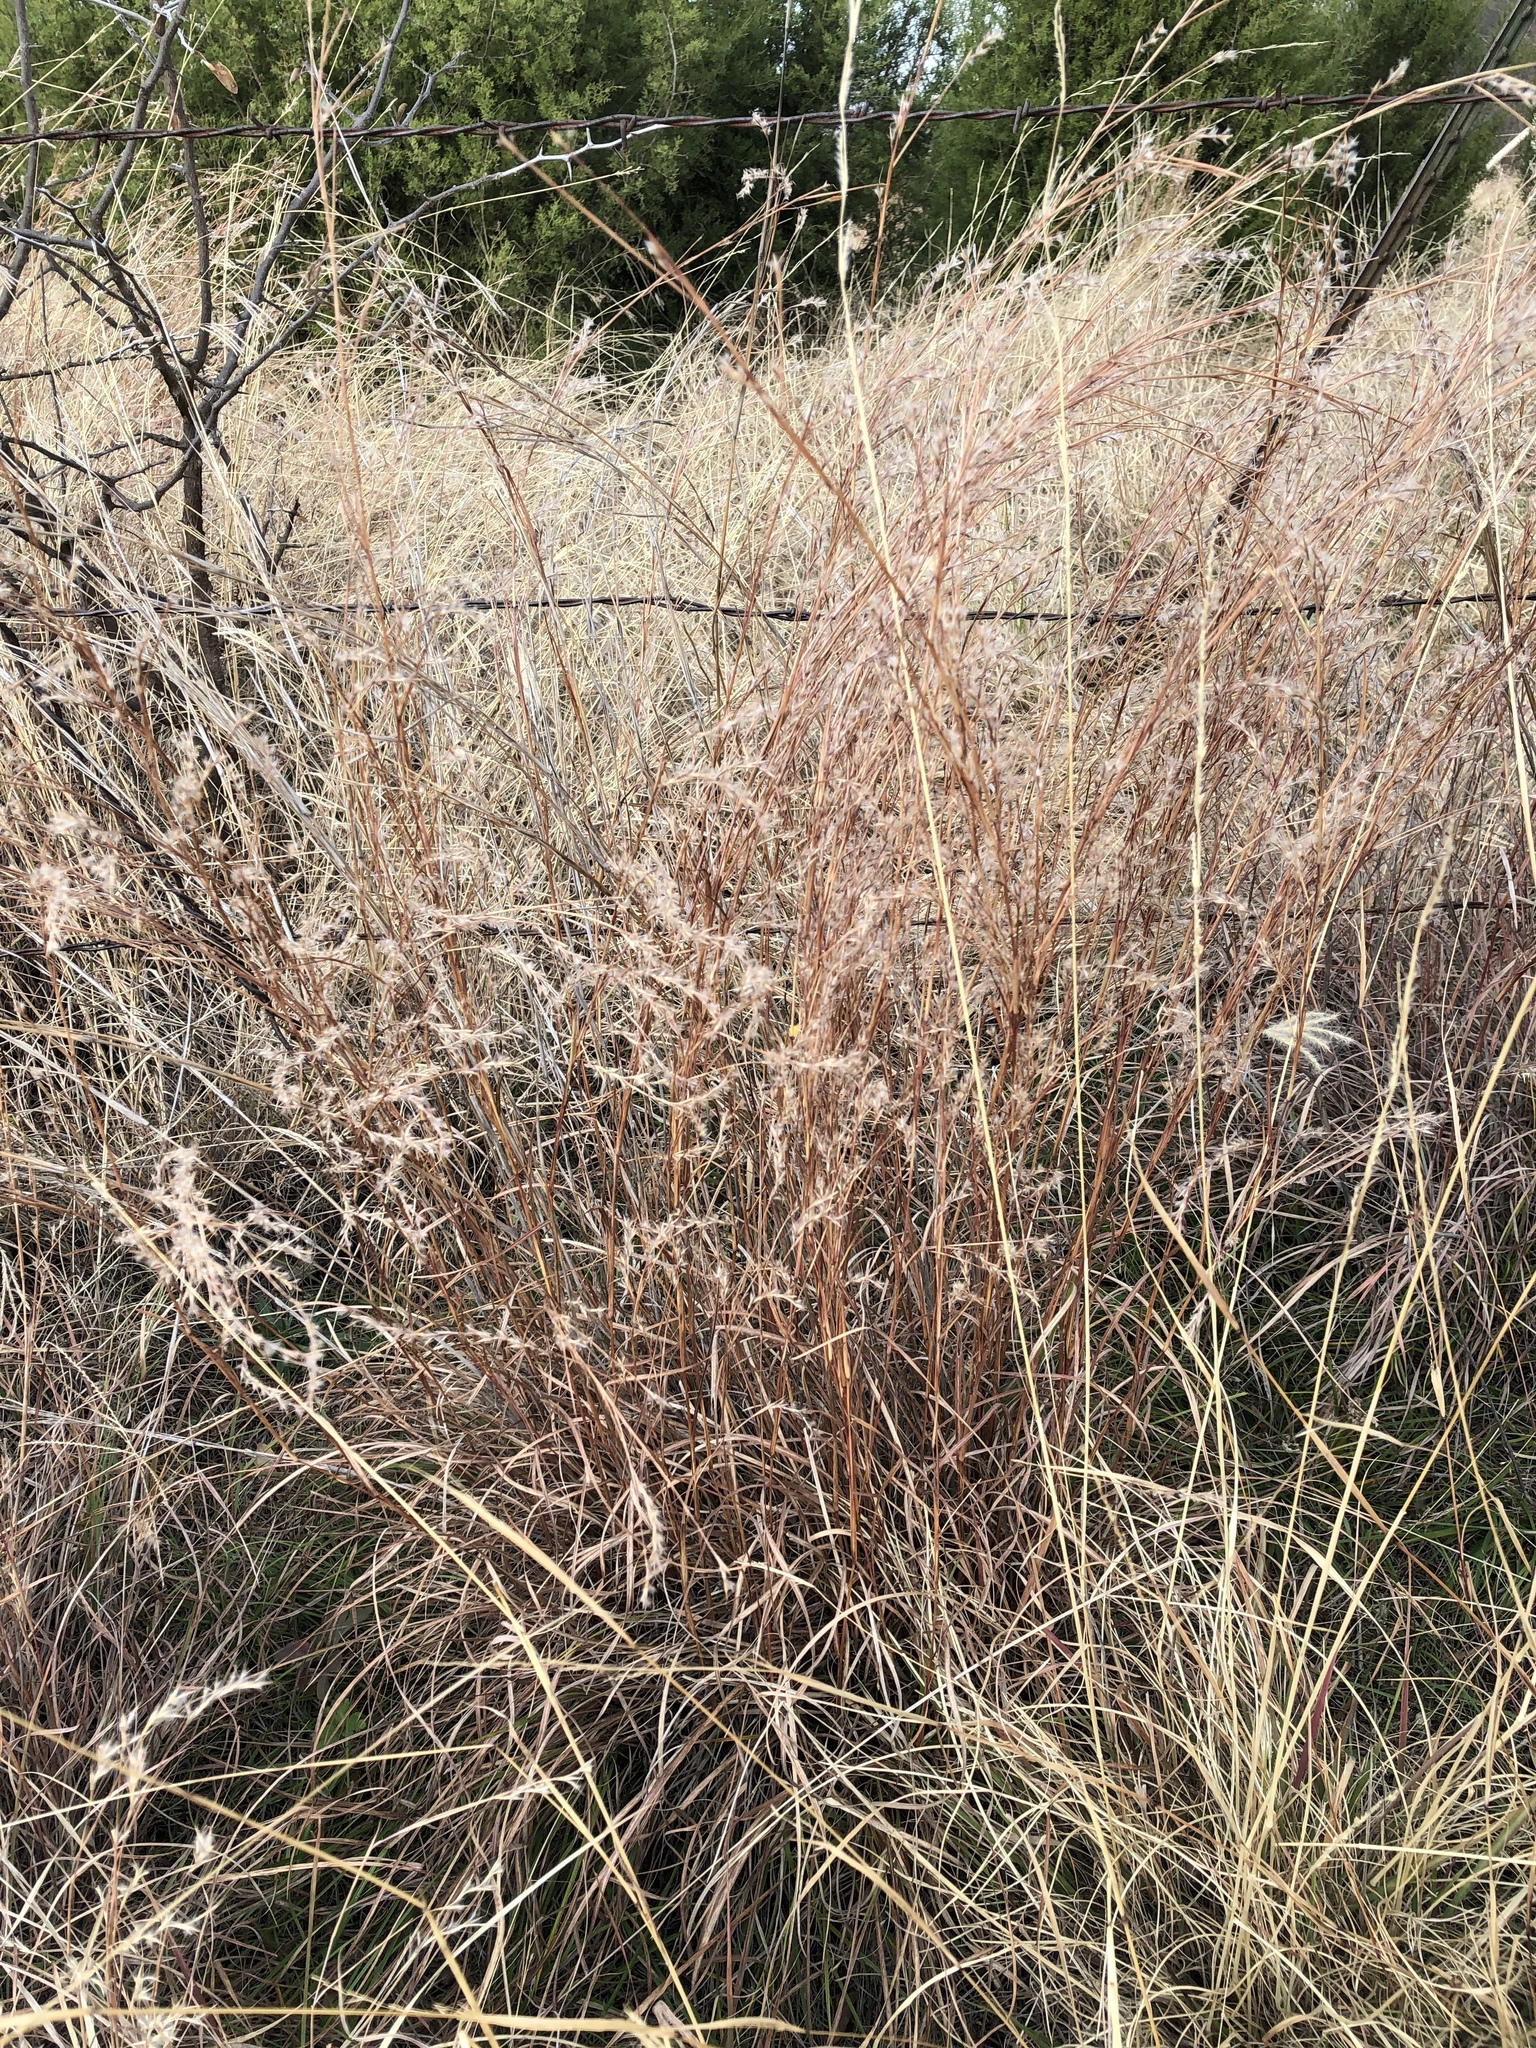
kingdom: Plantae
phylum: Tracheophyta
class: Liliopsida
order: Poales
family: Poaceae
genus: Schizachyrium
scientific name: Schizachyrium scoparium
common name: Little bluestem
